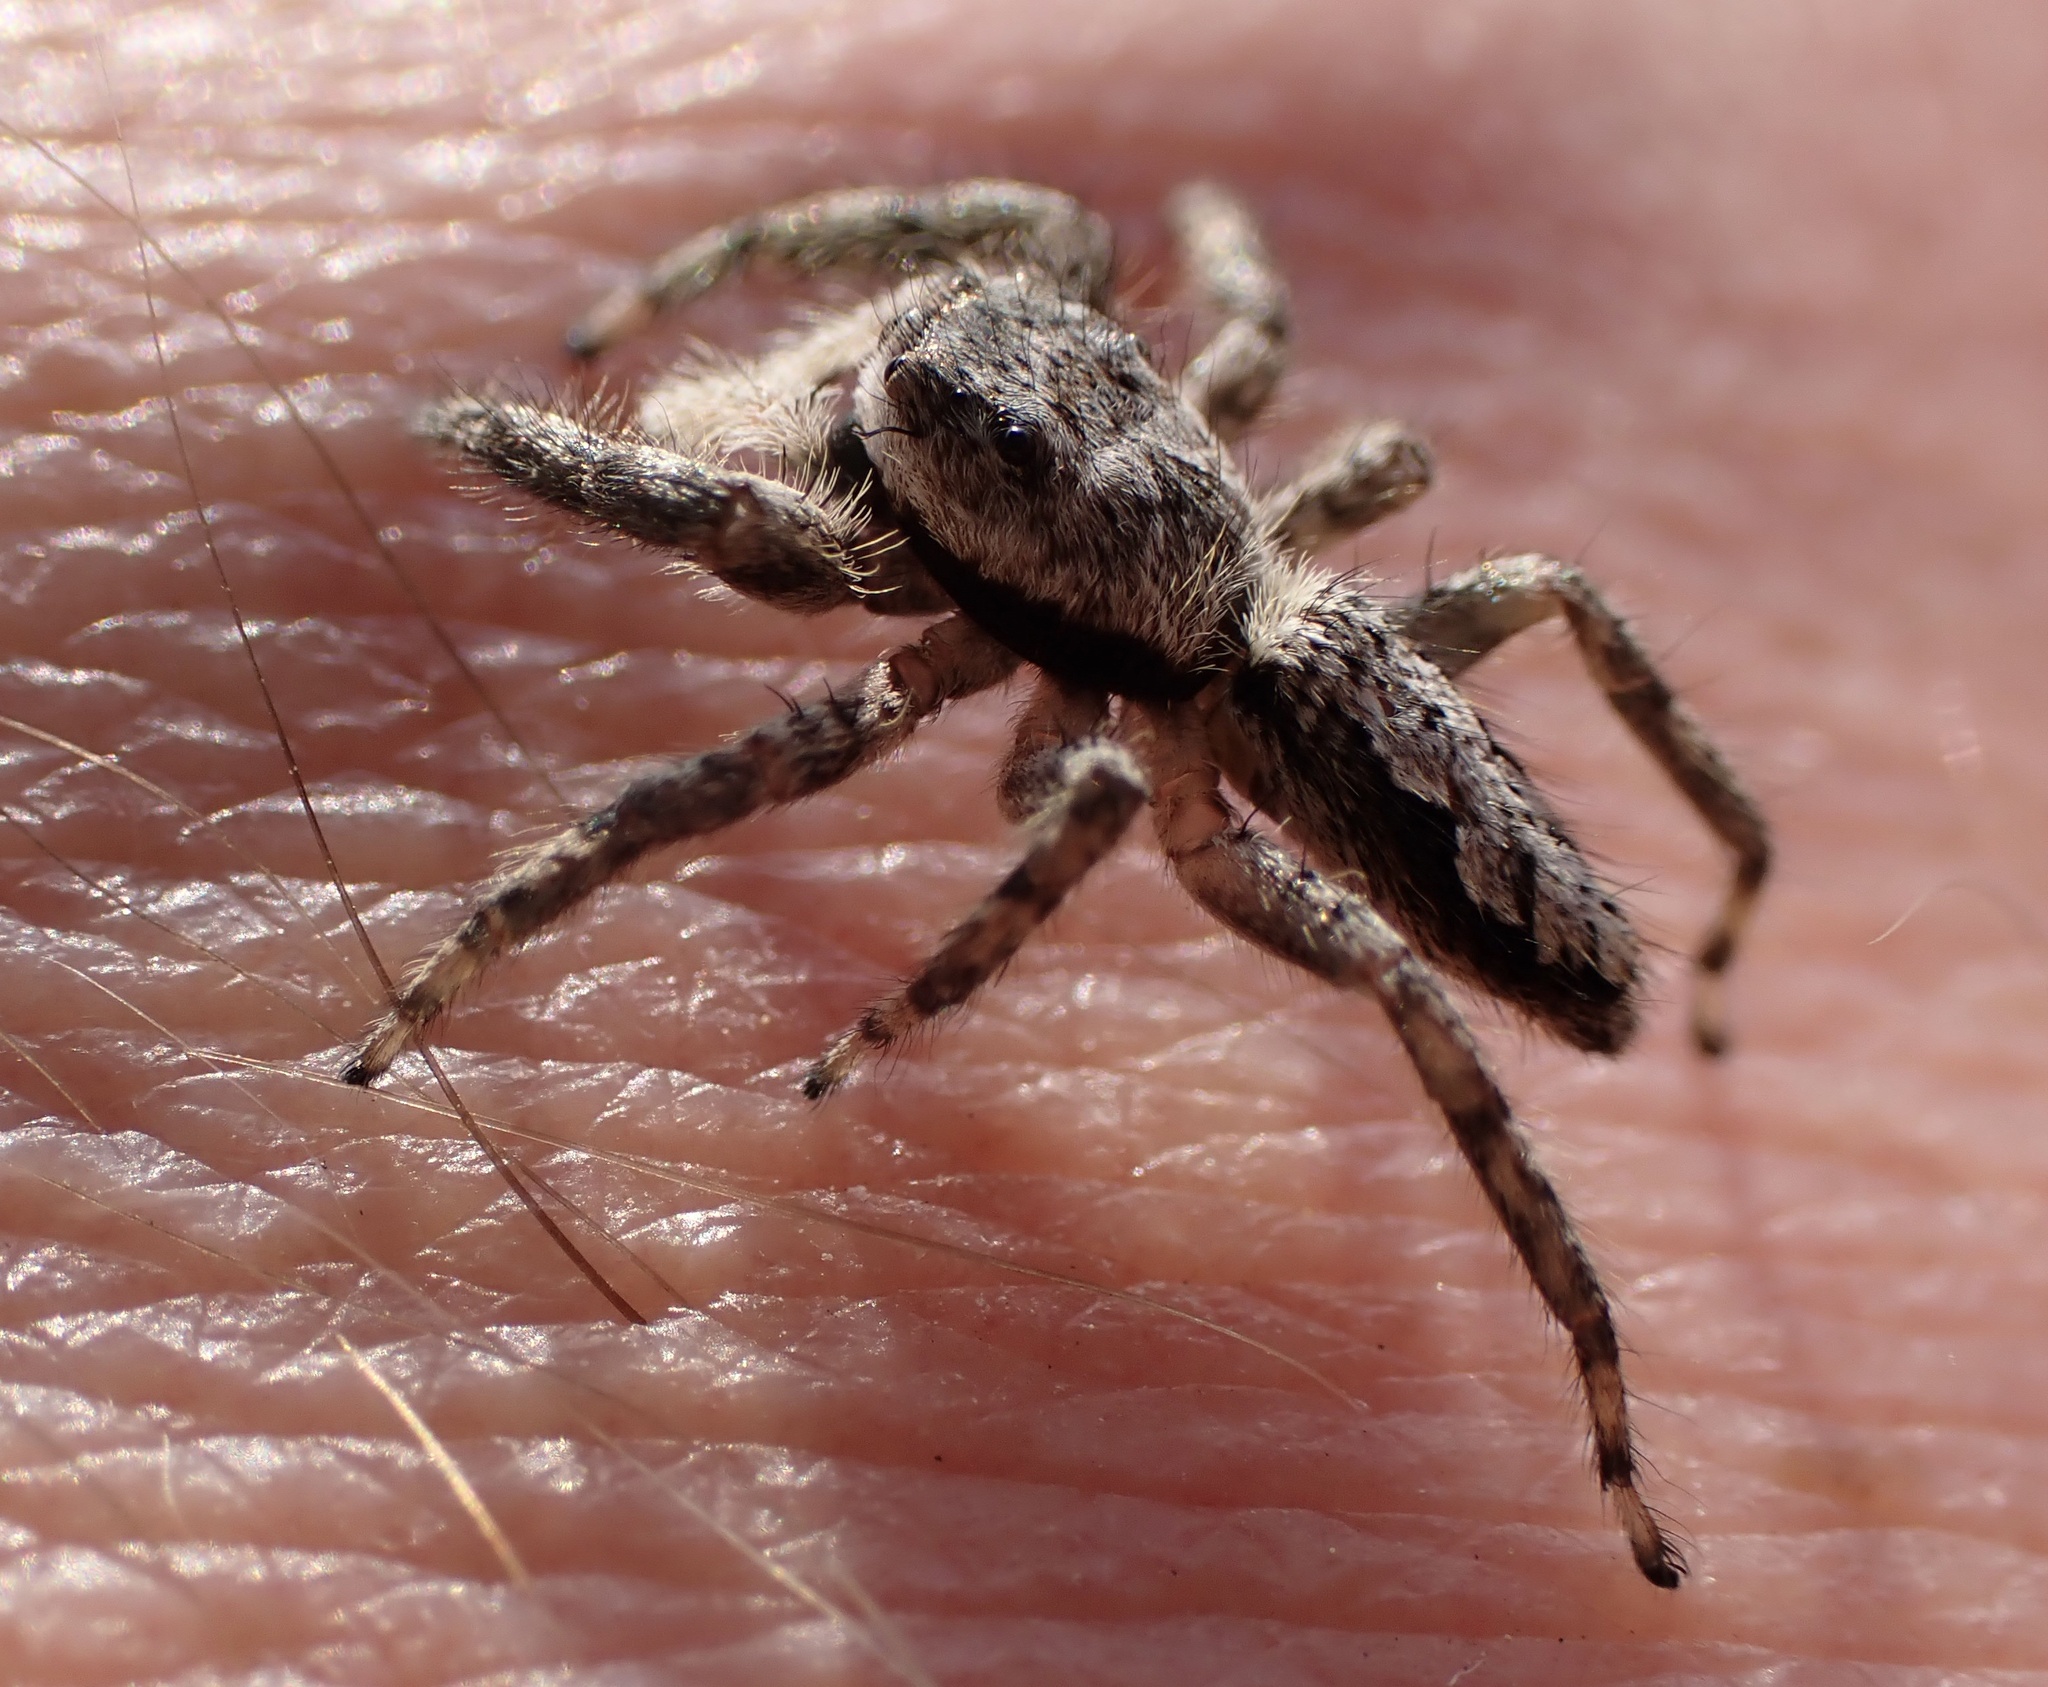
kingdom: Animalia
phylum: Arthropoda
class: Arachnida
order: Araneae
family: Salticidae
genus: Platycryptus
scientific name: Platycryptus undatus
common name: Tan jumping spider
